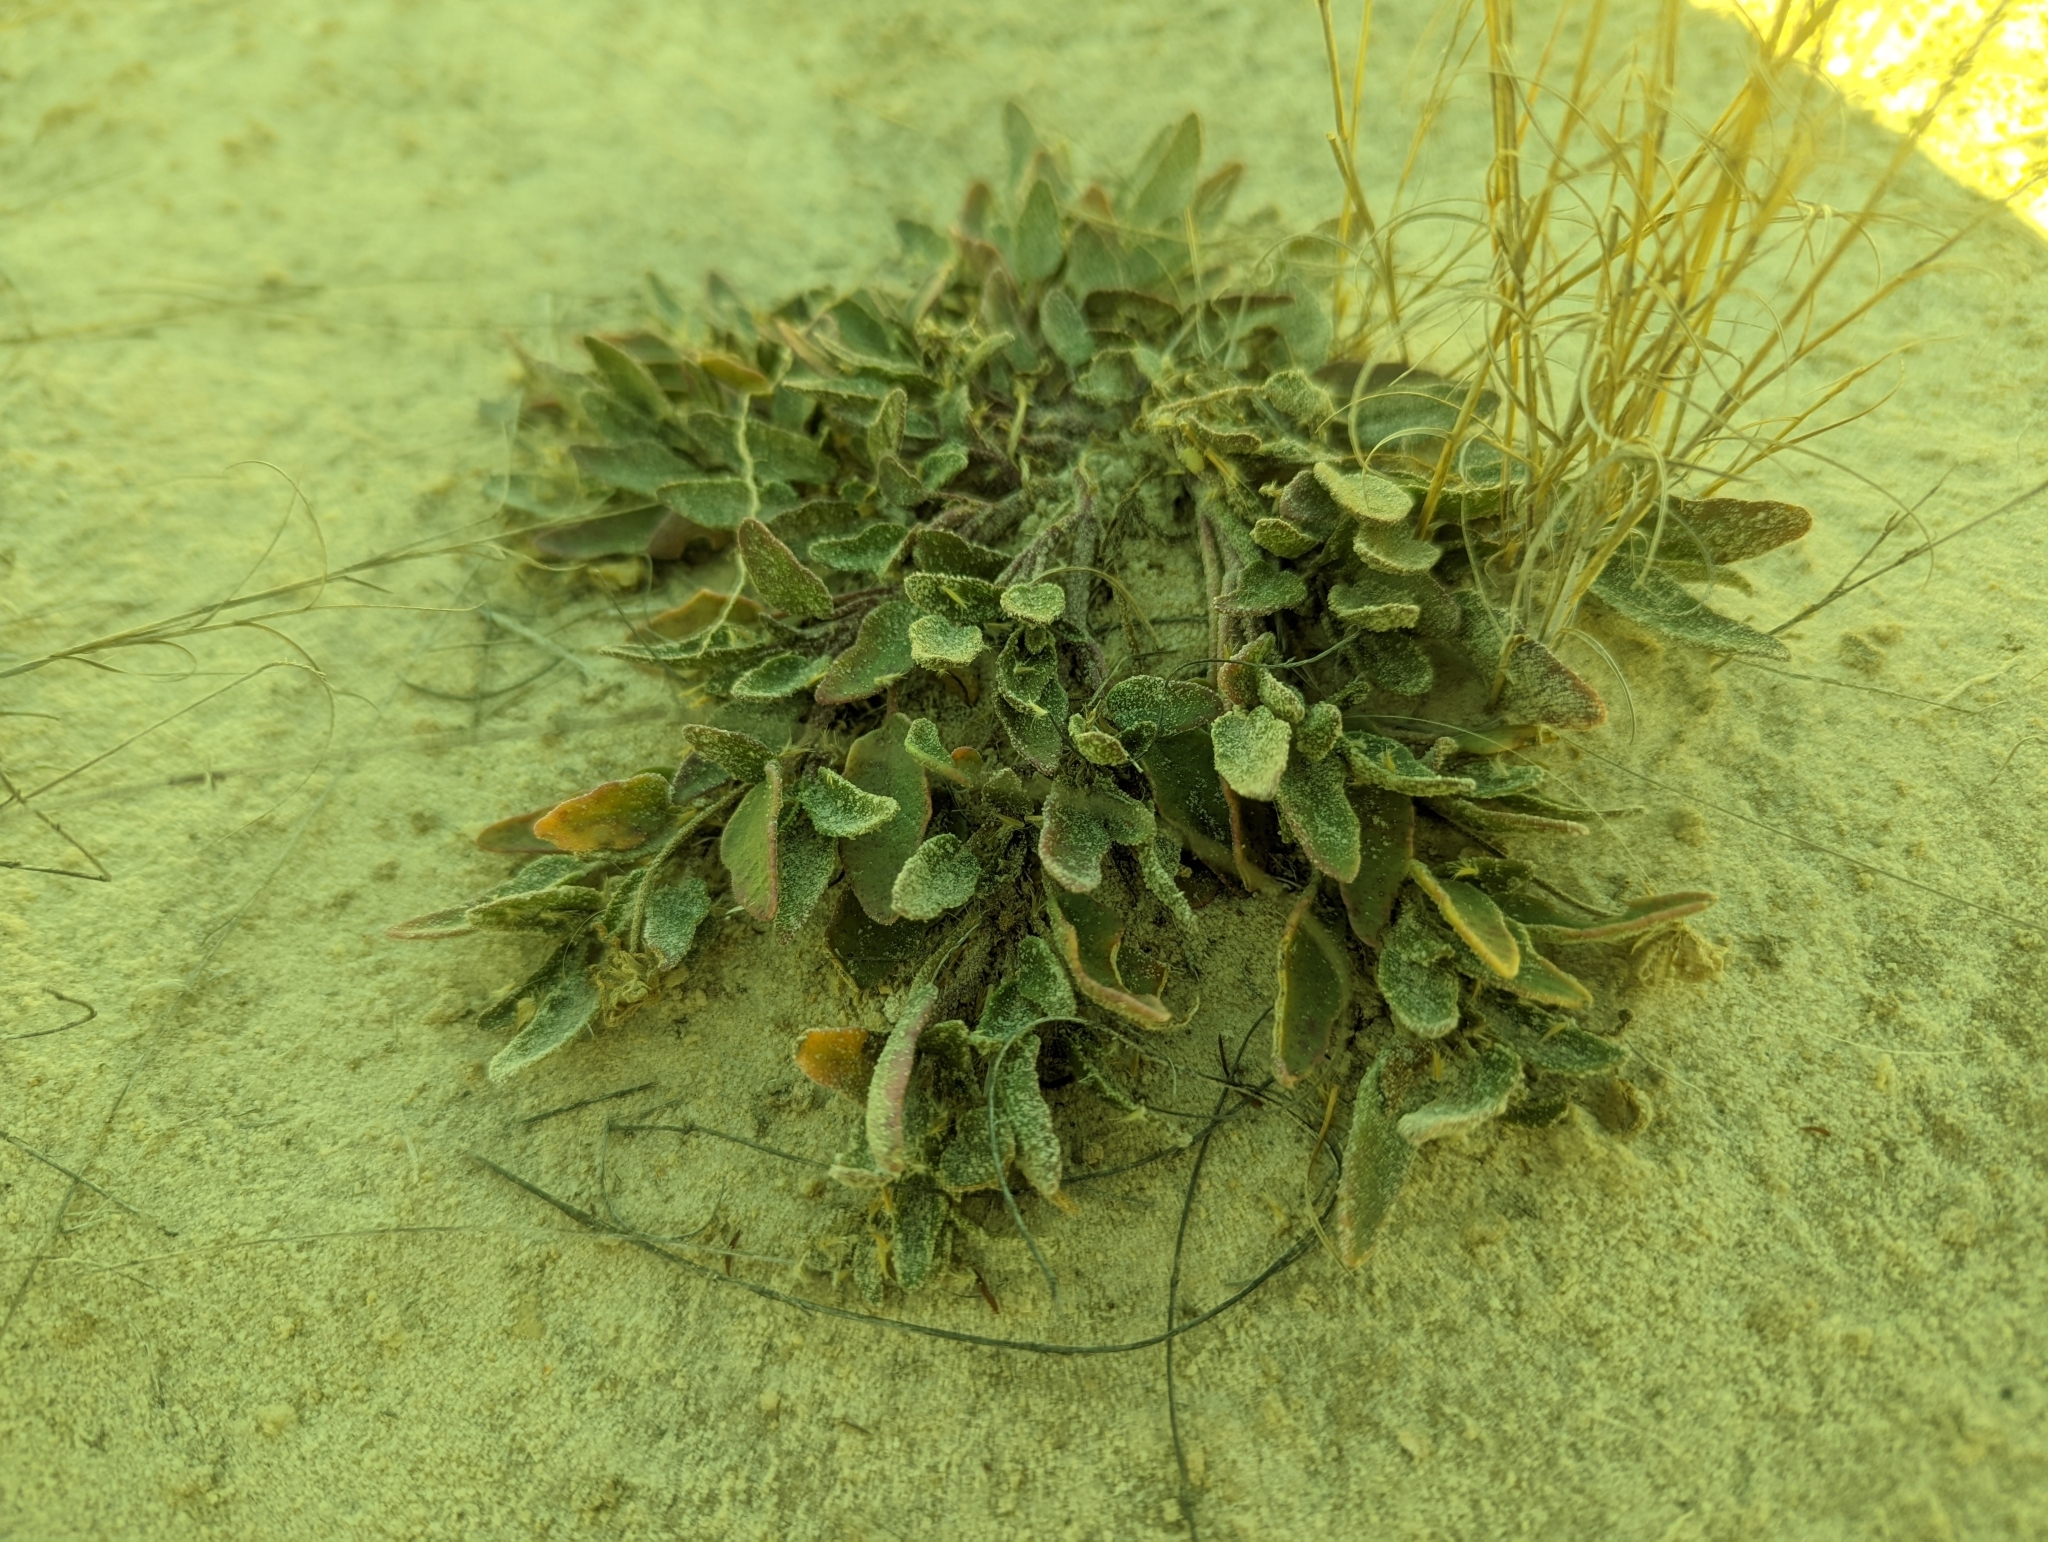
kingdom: Plantae
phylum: Tracheophyta
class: Magnoliopsida
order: Caryophyllales
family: Nyctaginaceae
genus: Abronia
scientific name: Abronia angustifolia
